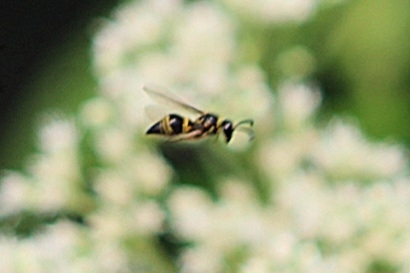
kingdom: Animalia
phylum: Arthropoda
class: Insecta
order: Hymenoptera
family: Vespidae
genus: Ancistrocerus
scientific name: Ancistrocerus campestris
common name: Smiling mason wasp
